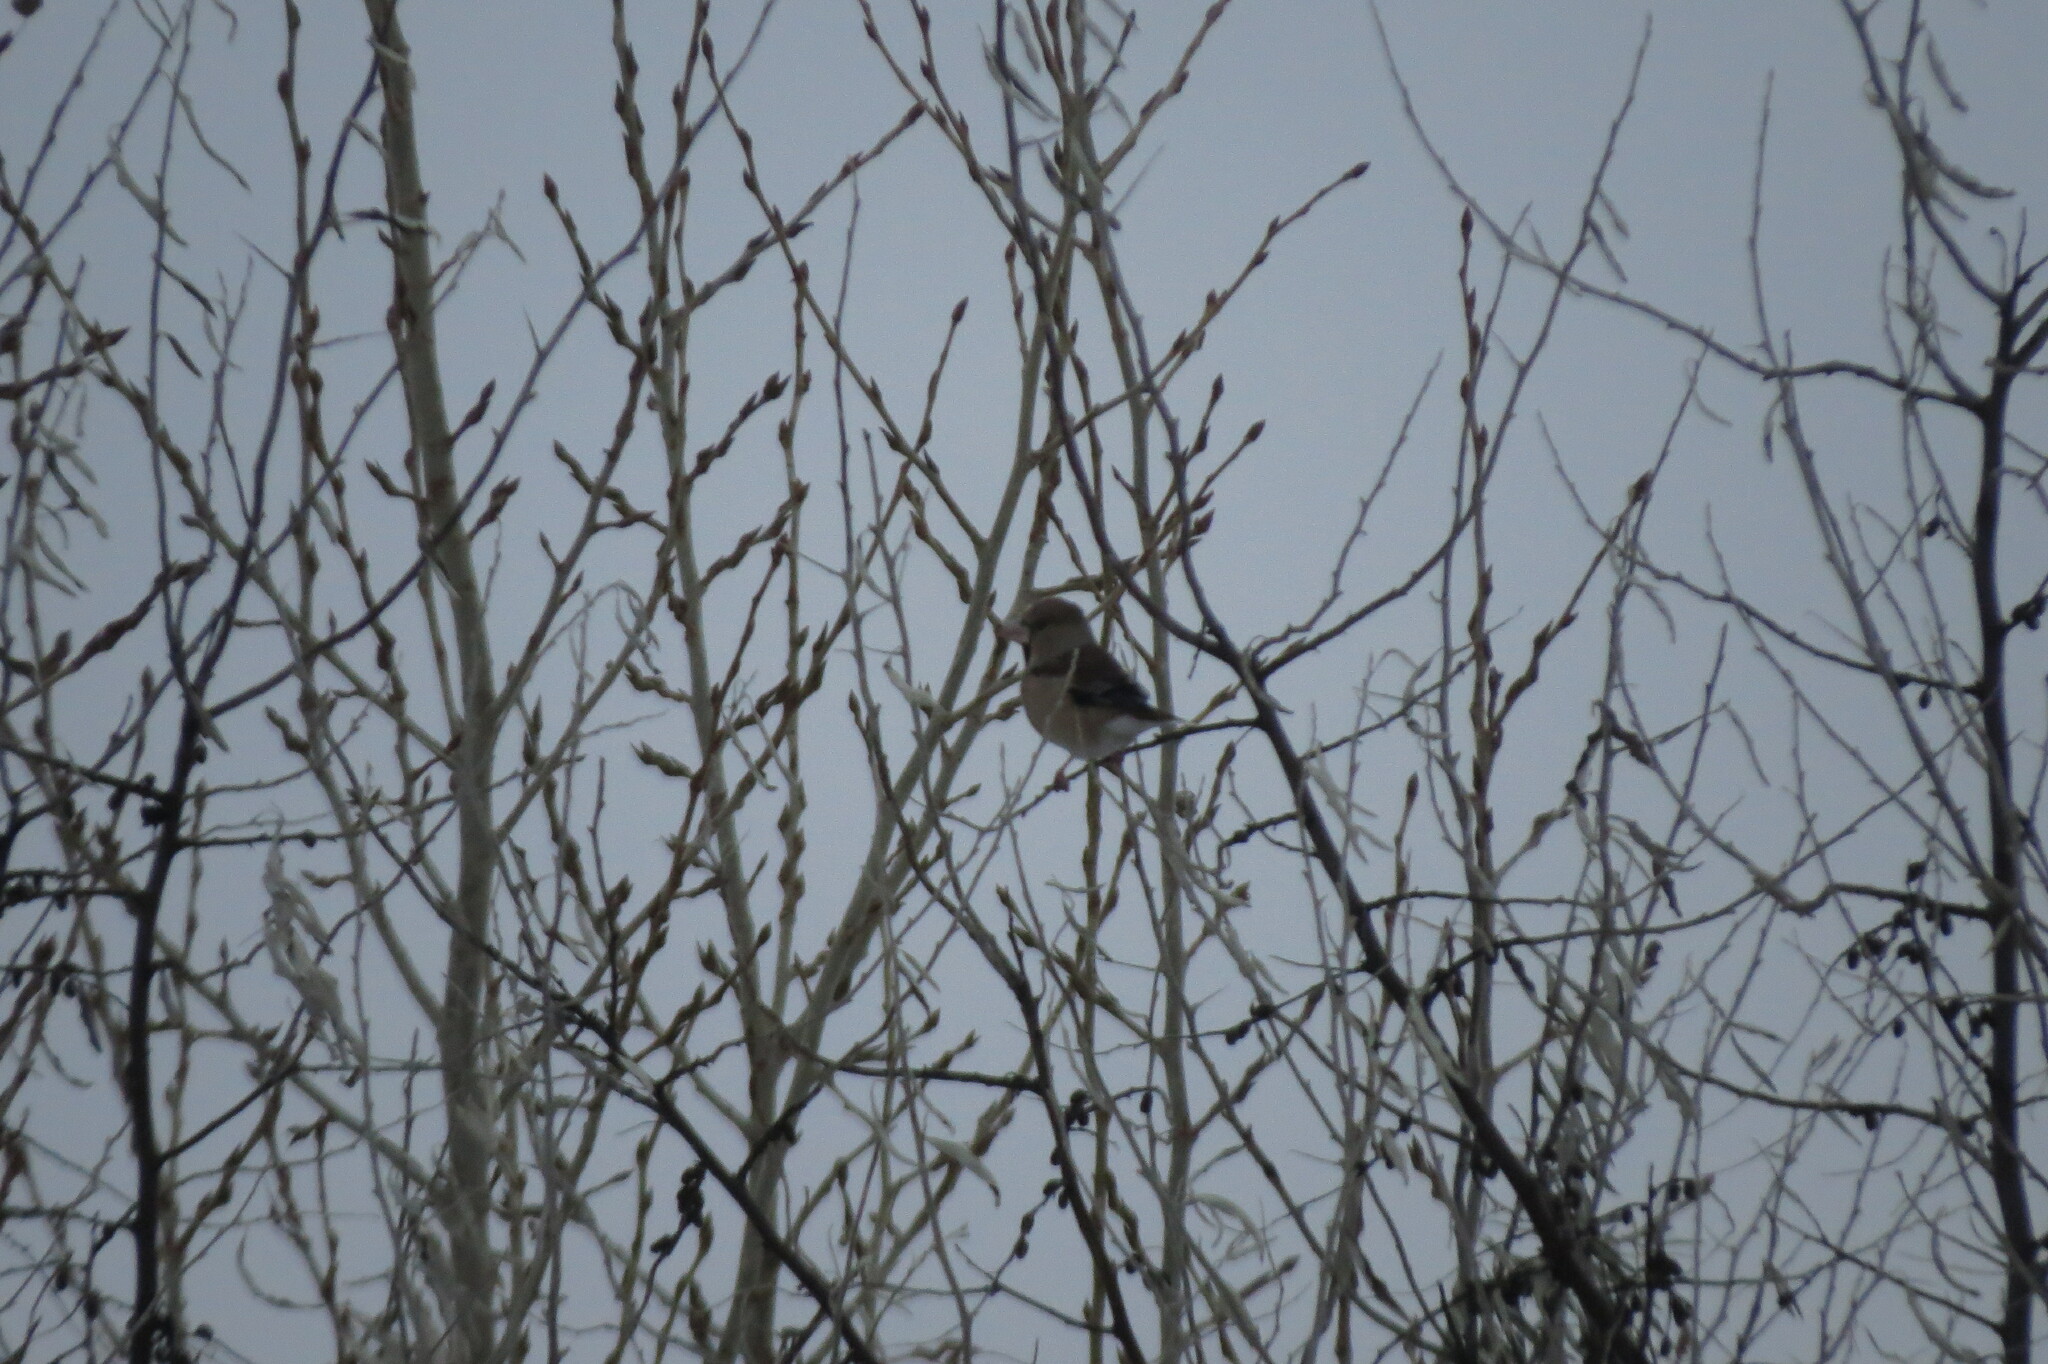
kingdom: Animalia
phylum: Chordata
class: Aves
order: Passeriformes
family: Fringillidae
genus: Coccothraustes
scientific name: Coccothraustes coccothraustes
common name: Hawfinch
